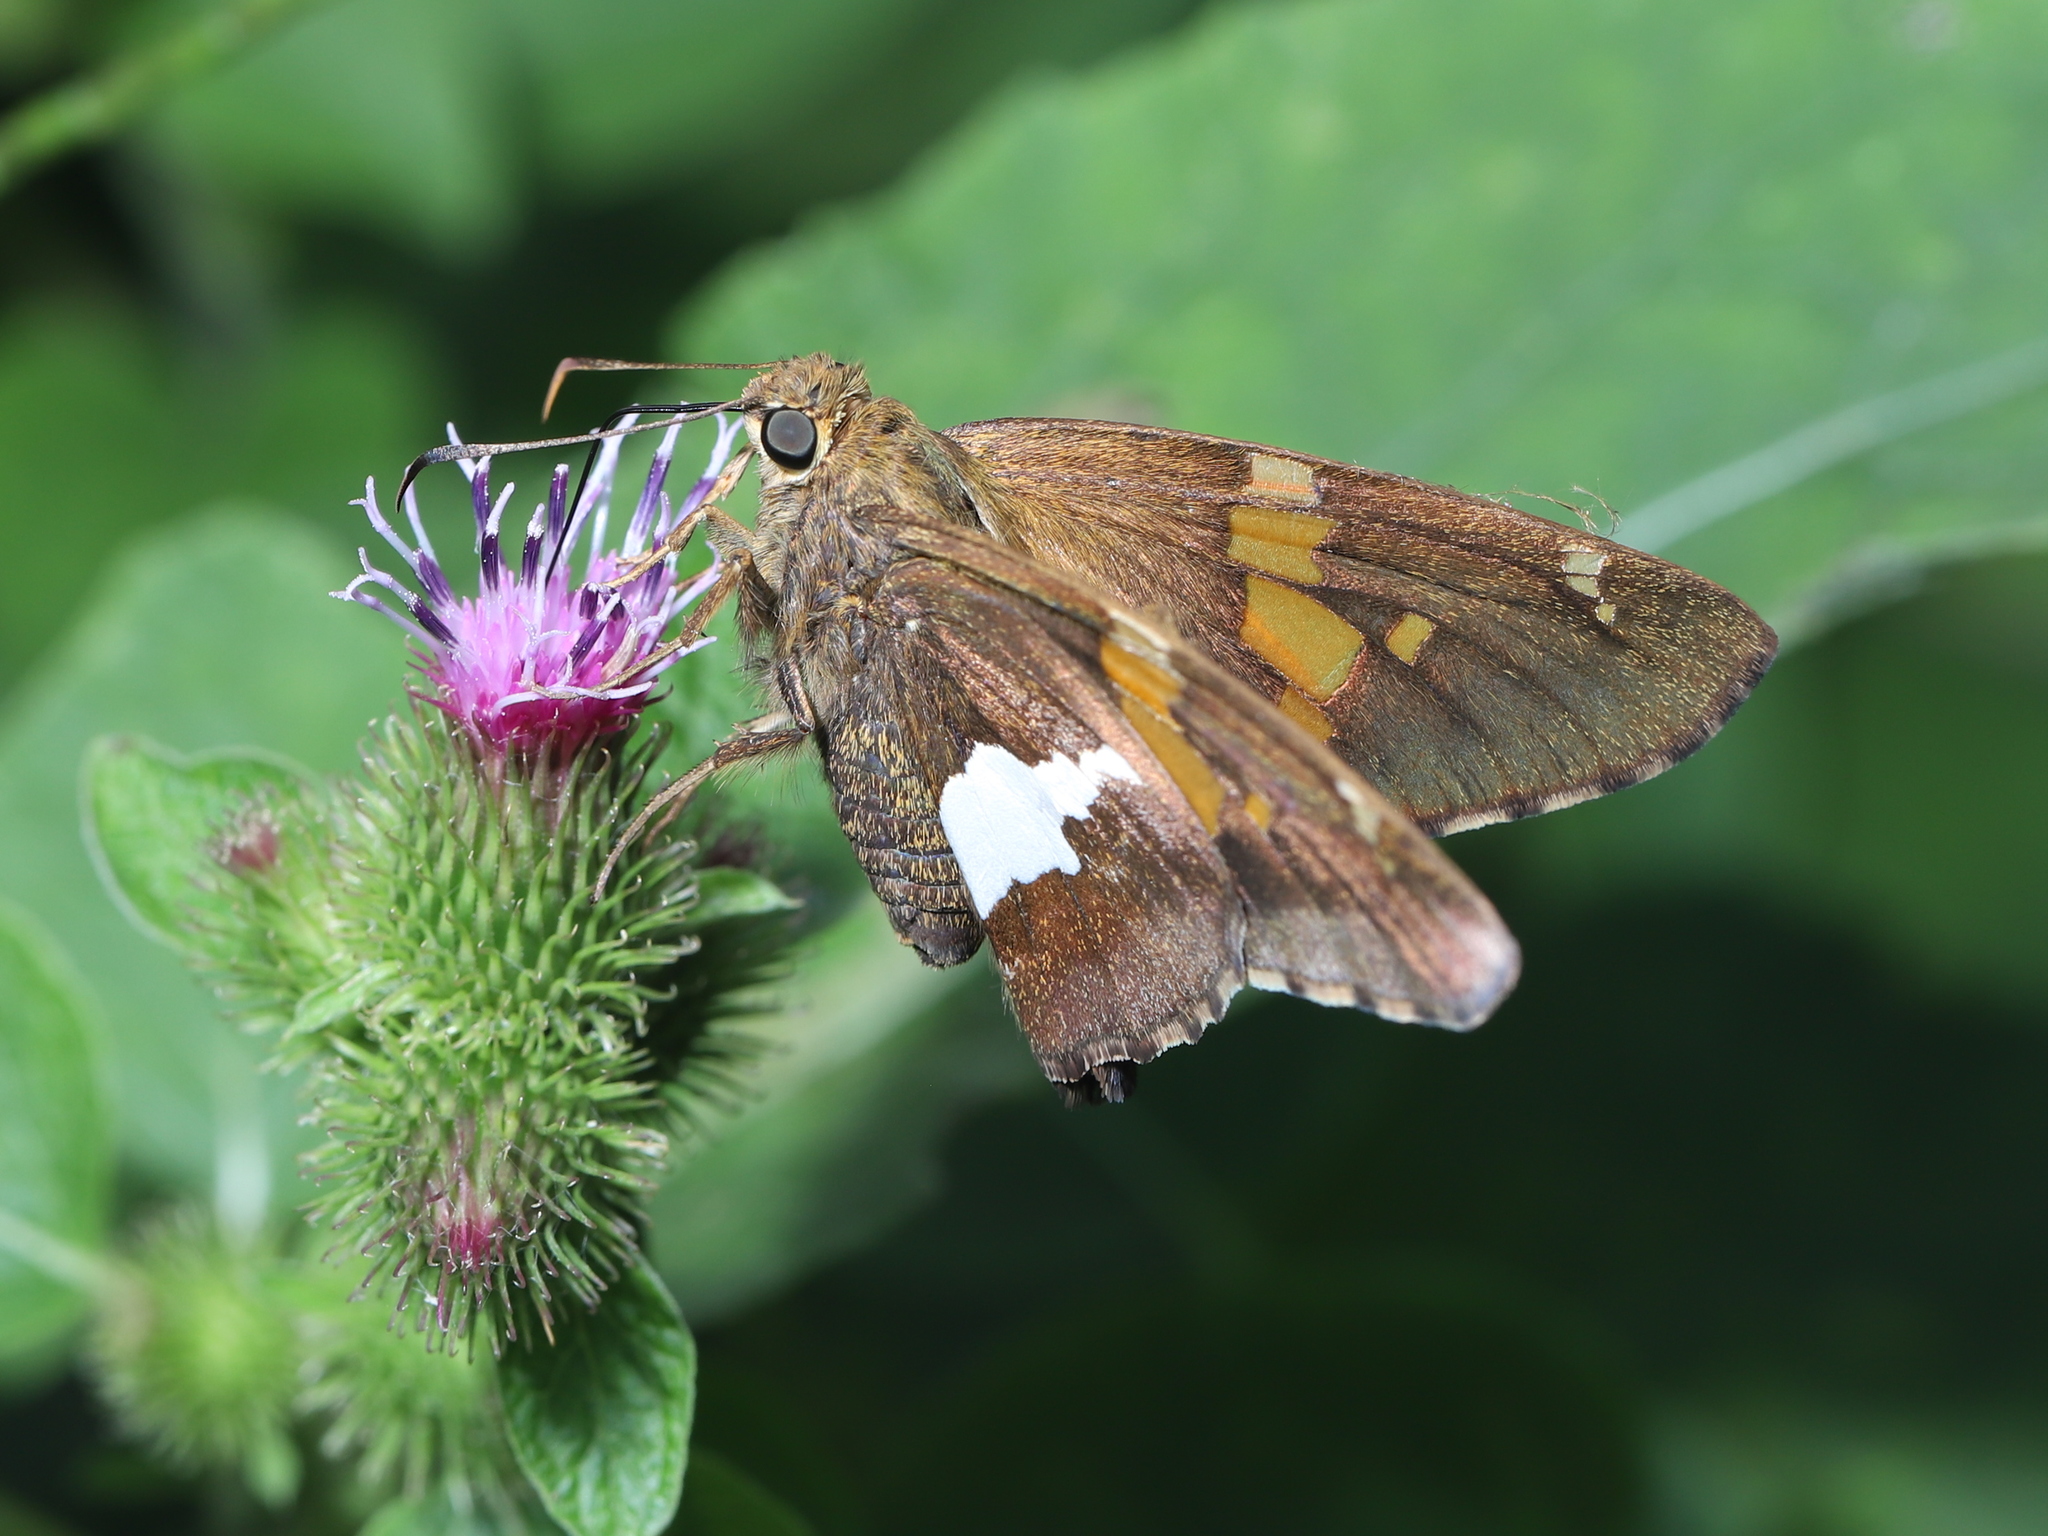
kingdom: Animalia
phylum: Arthropoda
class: Insecta
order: Lepidoptera
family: Hesperiidae
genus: Epargyreus
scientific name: Epargyreus clarus
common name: Silver-spotted skipper
